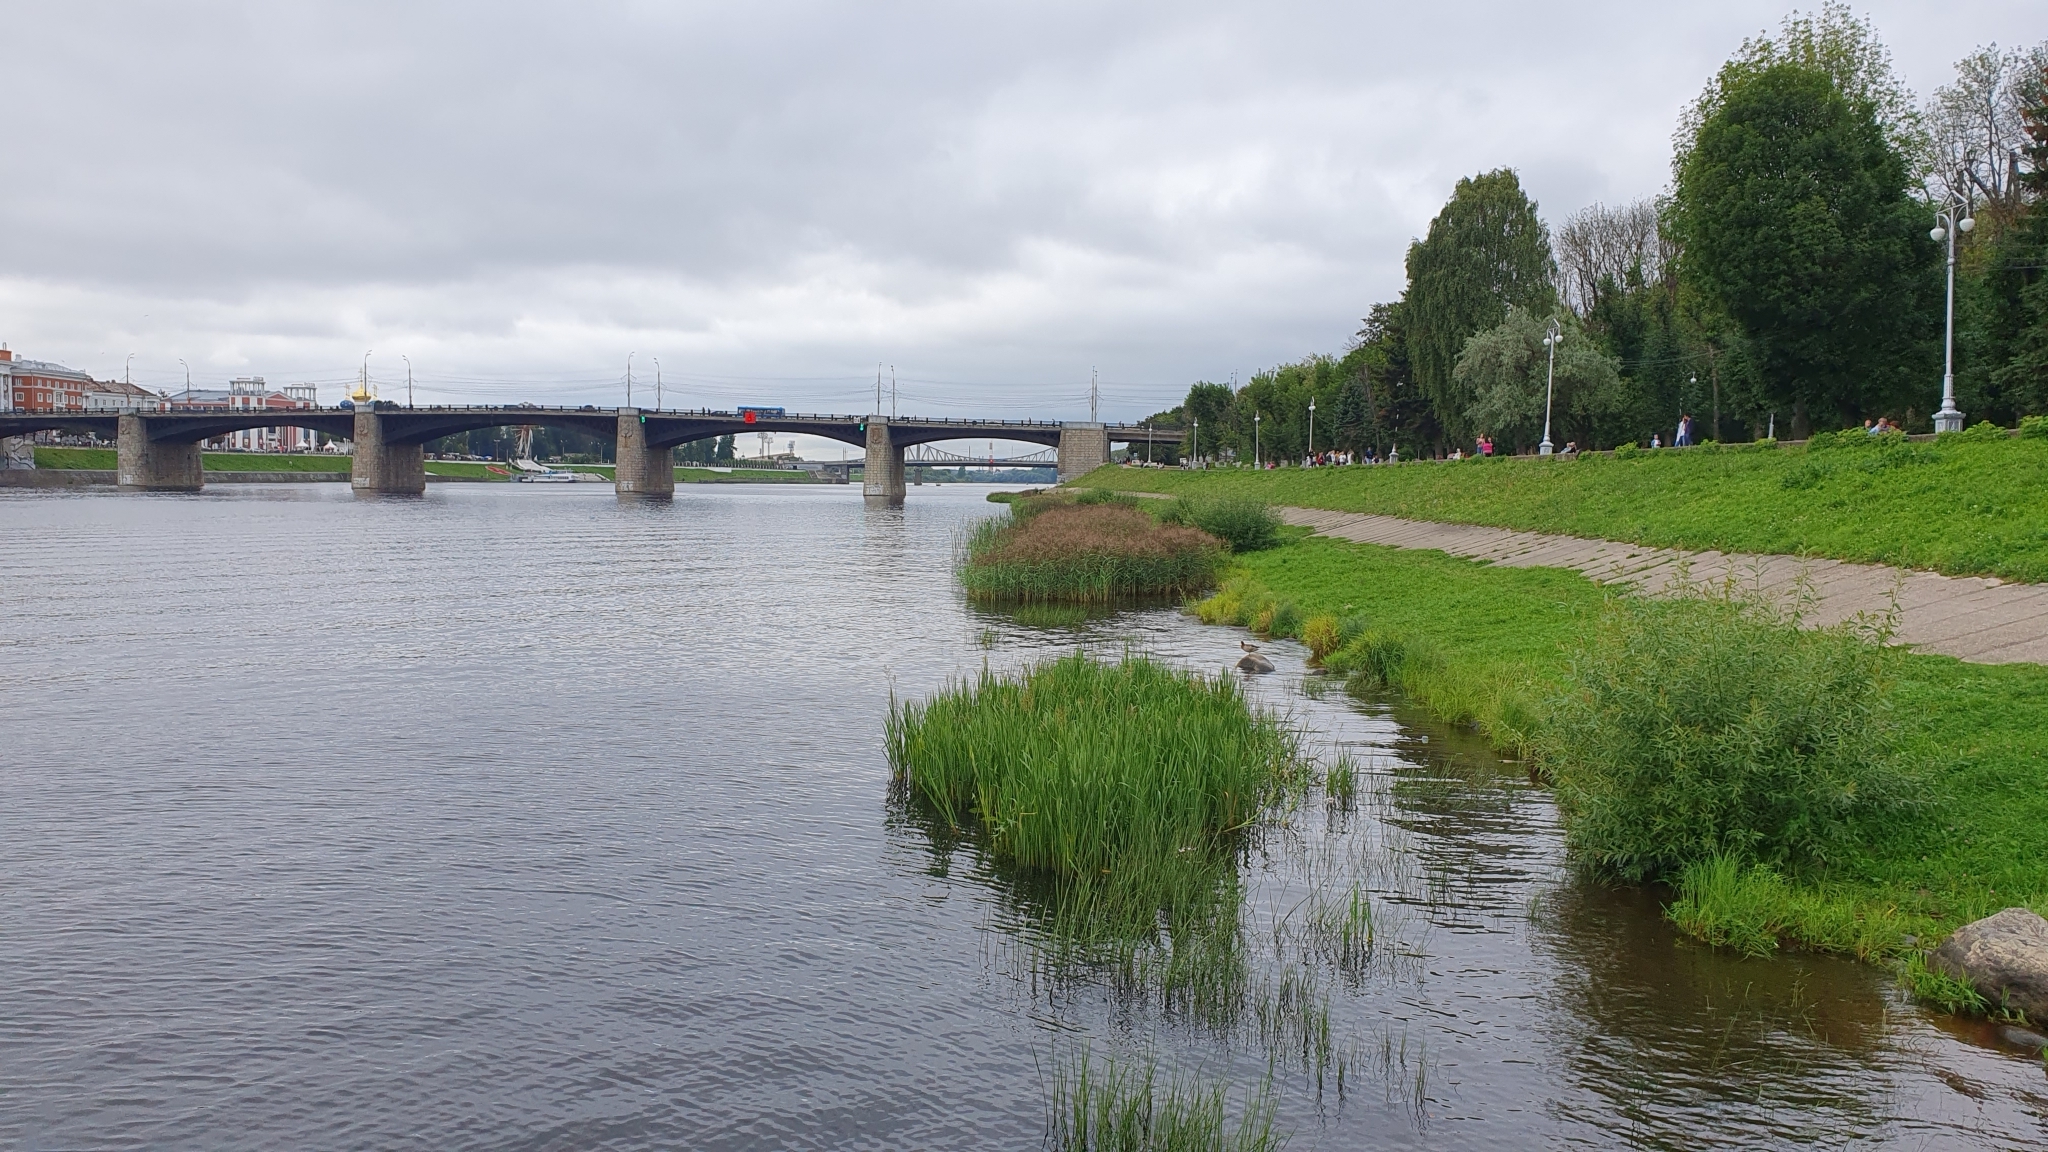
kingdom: Plantae
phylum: Tracheophyta
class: Liliopsida
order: Poales
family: Poaceae
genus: Phragmites
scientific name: Phragmites australis
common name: Common reed
